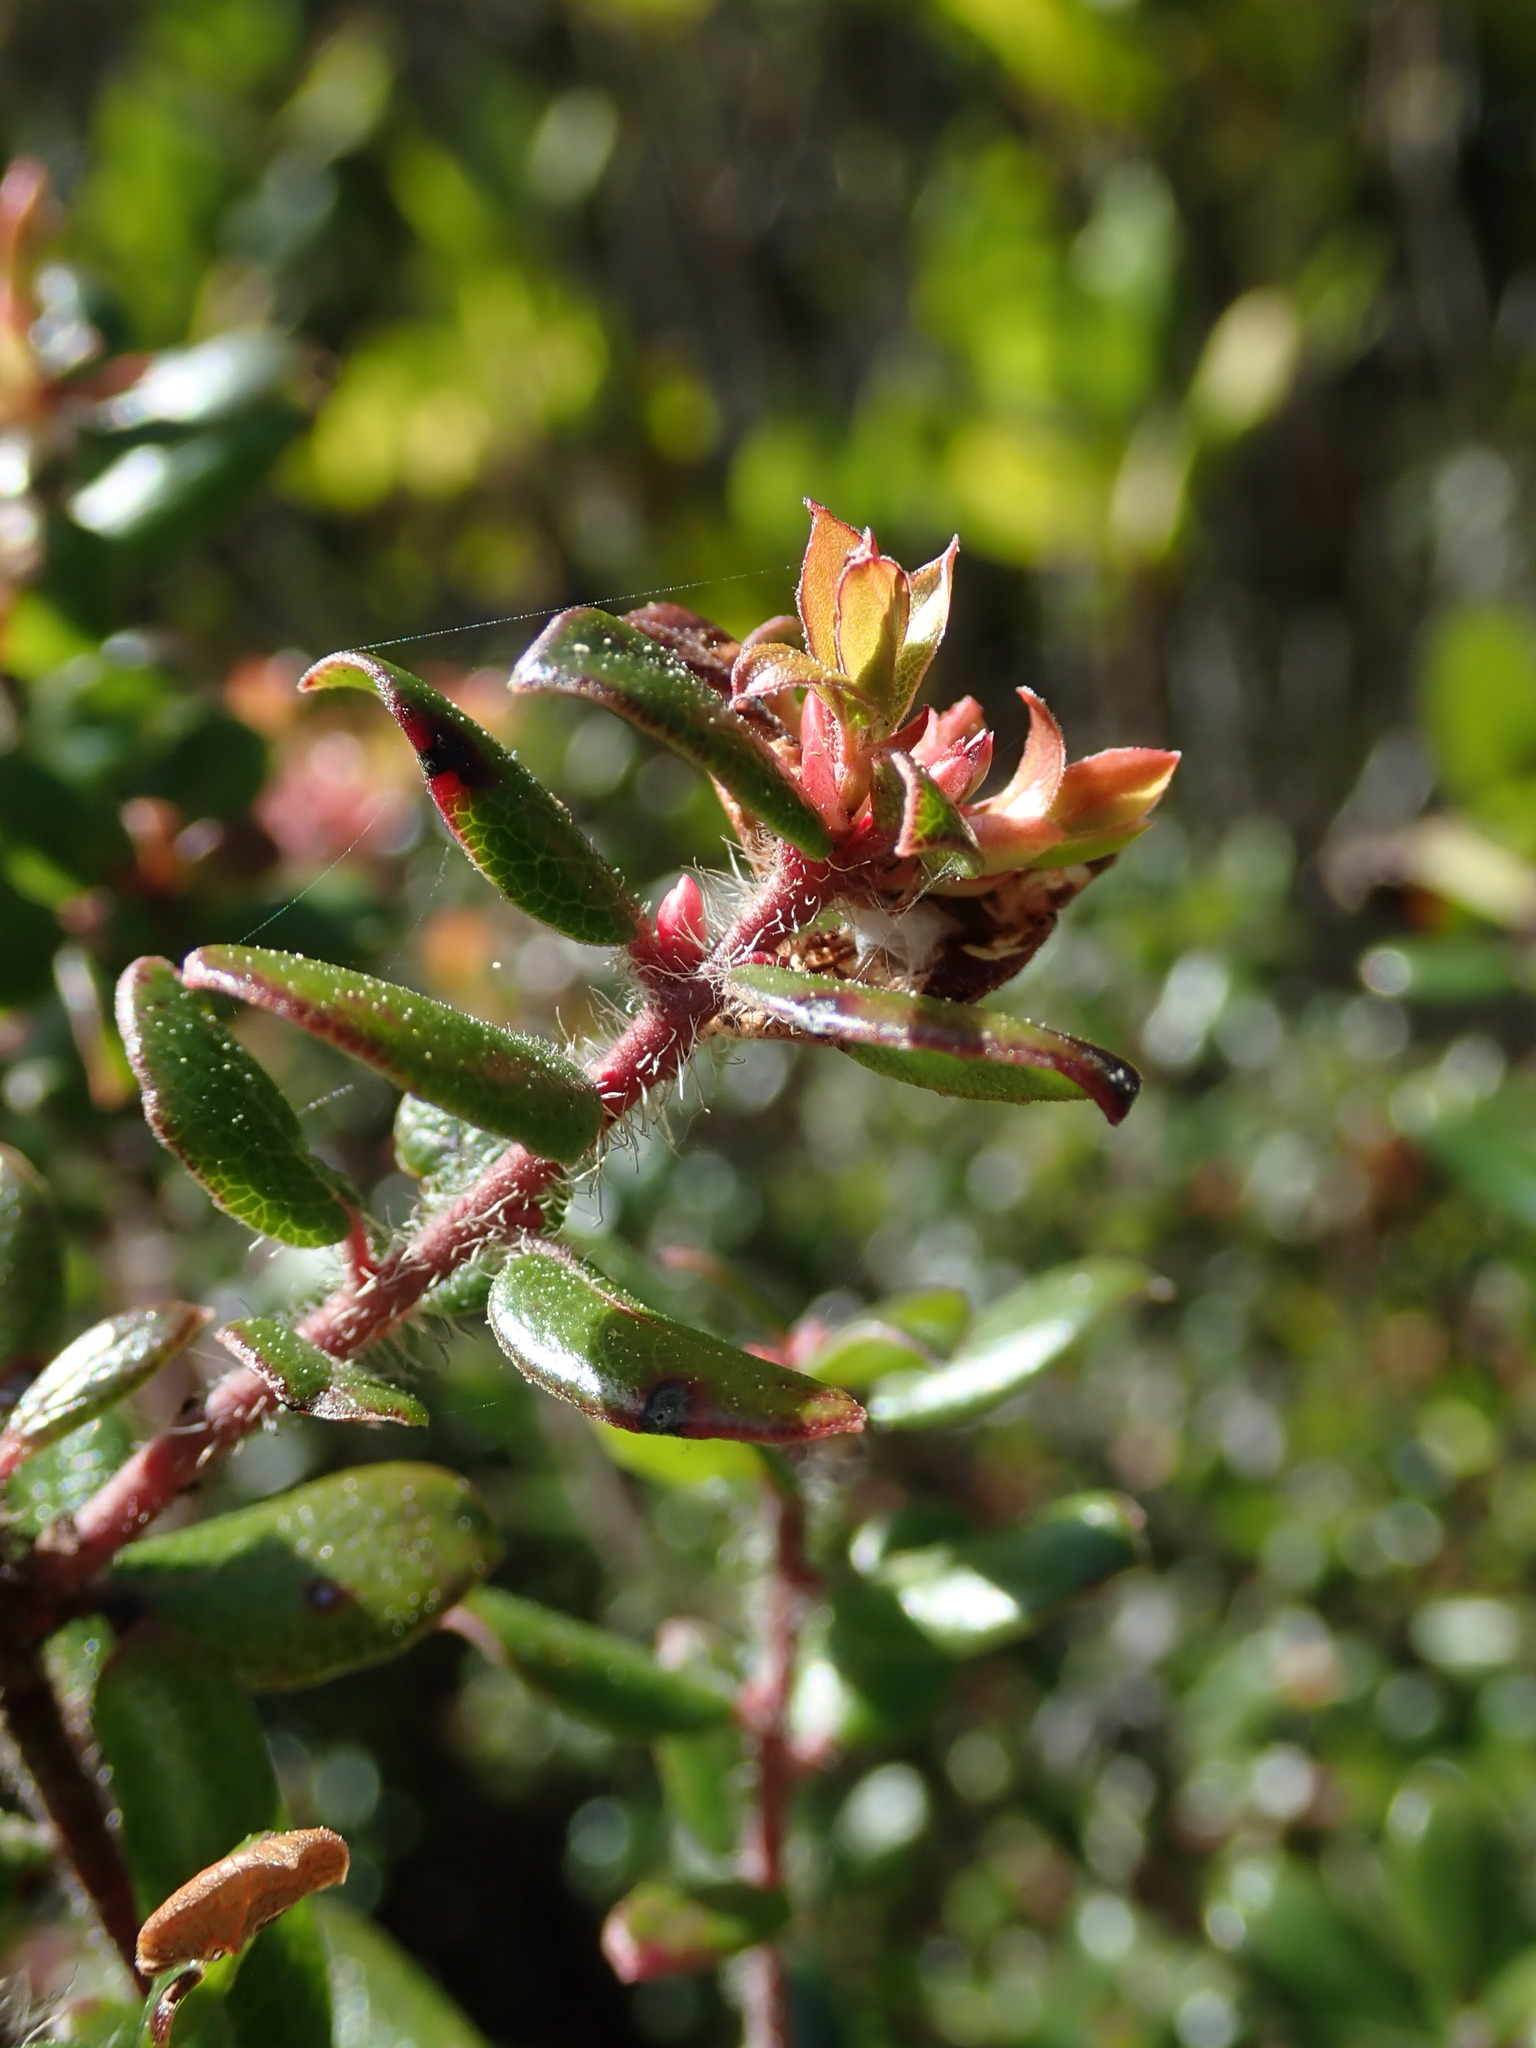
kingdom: Plantae
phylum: Tracheophyta
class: Magnoliopsida
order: Ericales
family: Ericaceae
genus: Arctostaphylos
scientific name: Arctostaphylos nummularia
